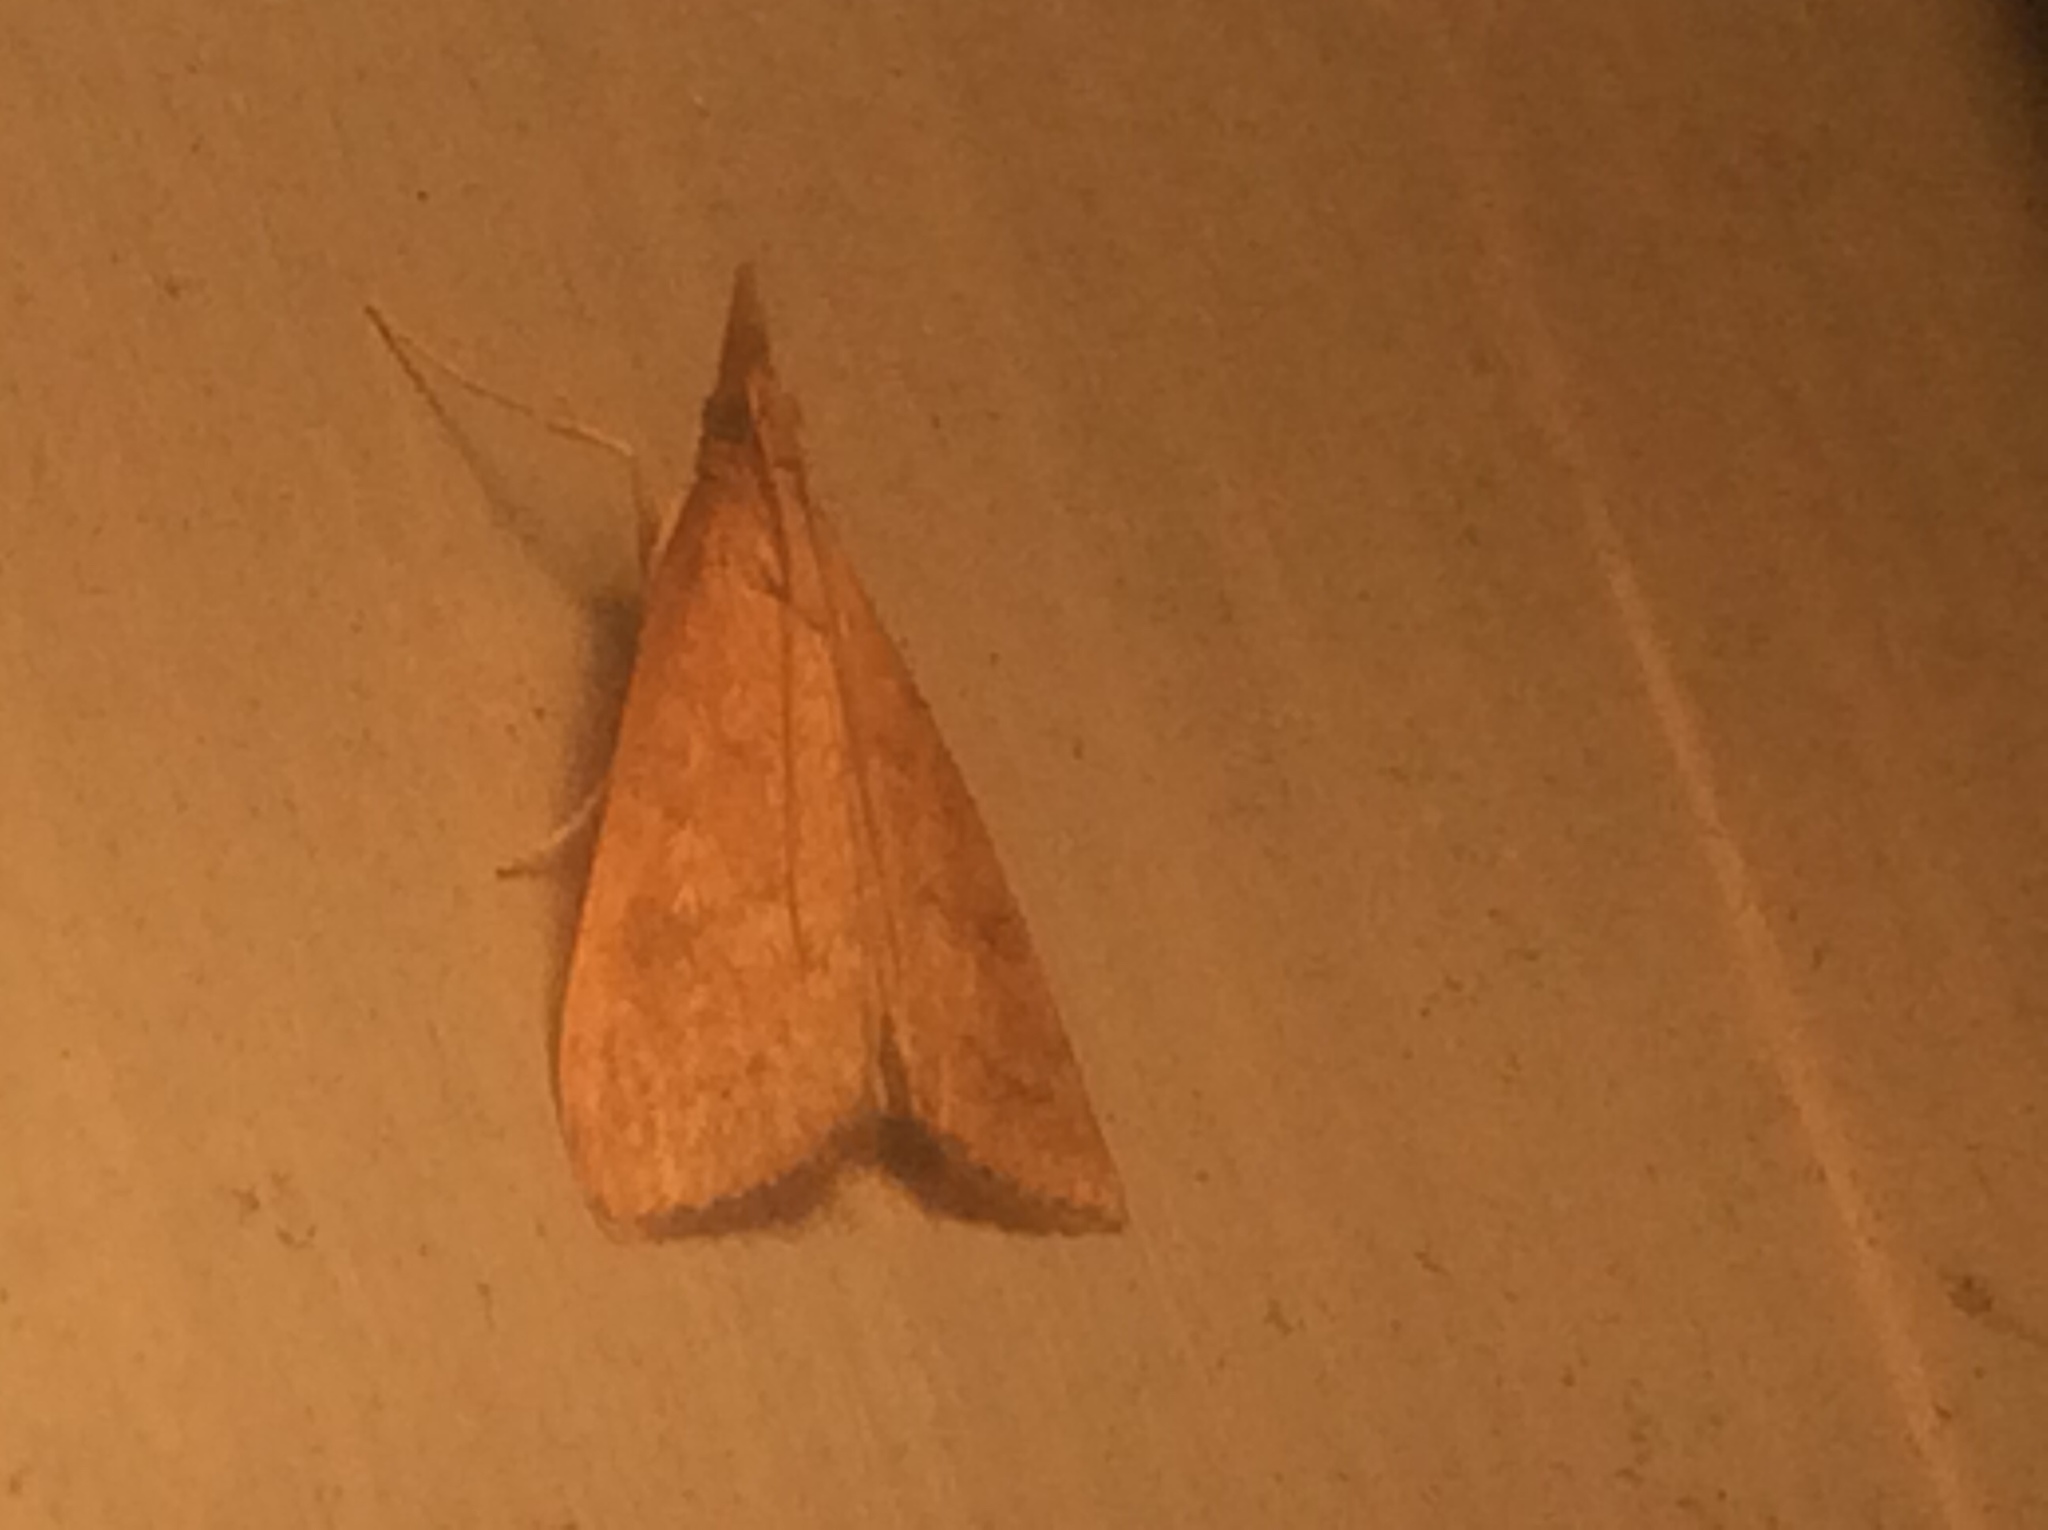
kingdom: Animalia
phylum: Arthropoda
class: Insecta
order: Lepidoptera
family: Crambidae
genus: Udea
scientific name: Udea rubigalis
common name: Celery leaftier moth
